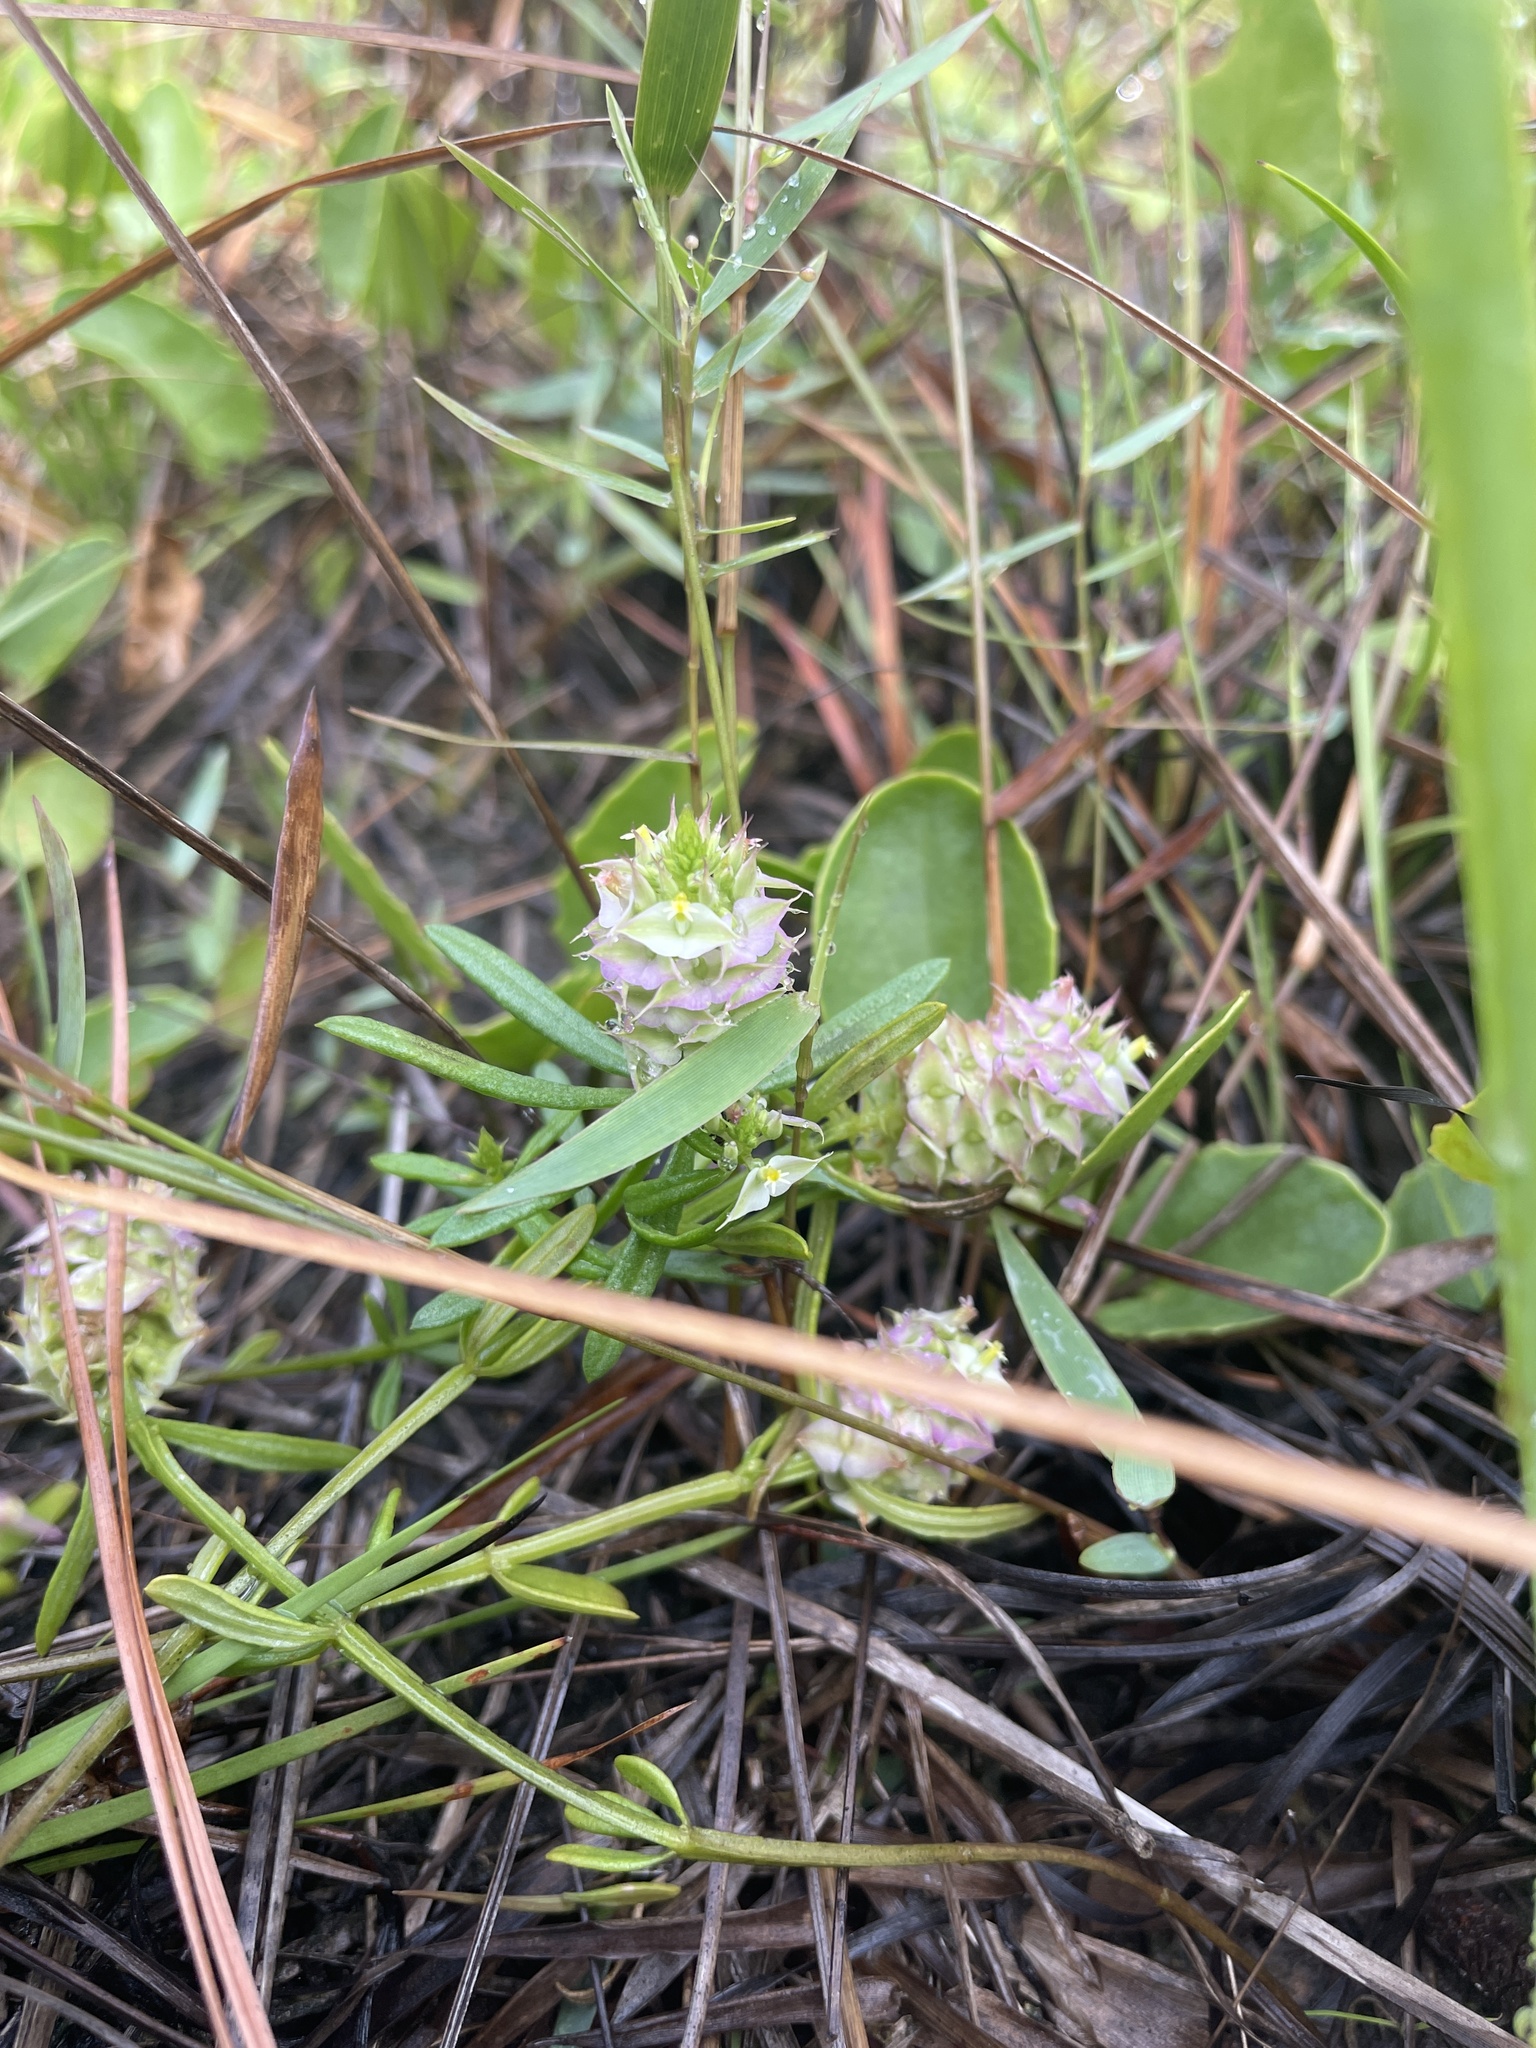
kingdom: Plantae
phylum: Tracheophyta
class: Magnoliopsida
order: Fabales
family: Polygalaceae
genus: Polygala
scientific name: Polygala cruciata
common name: Drumheads
